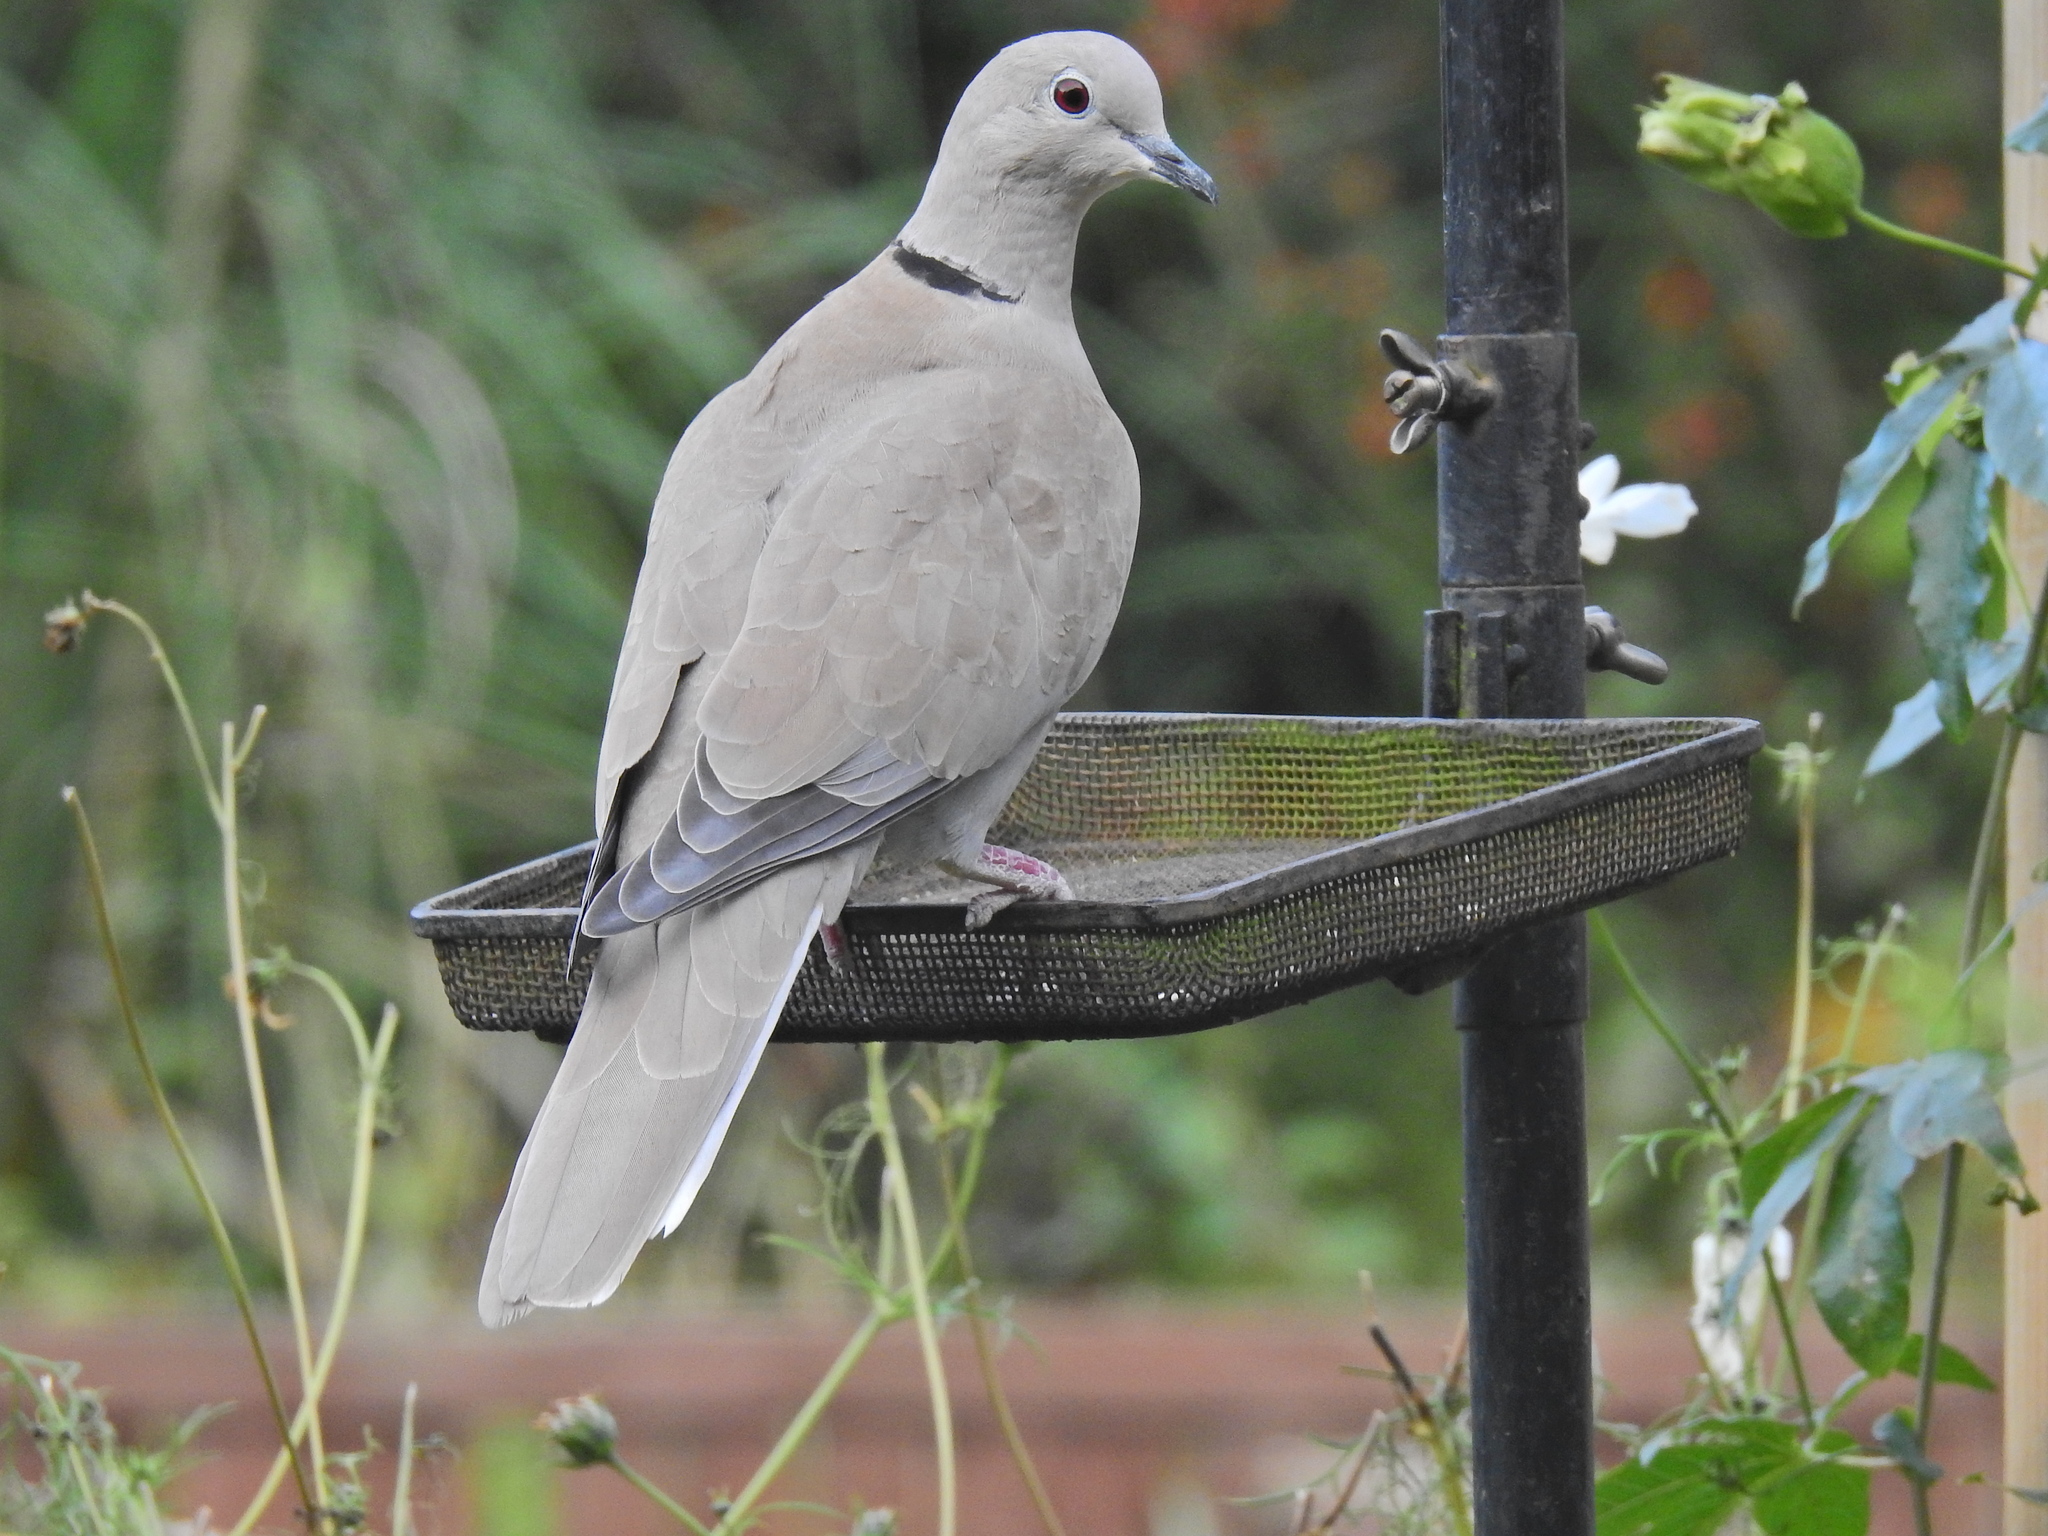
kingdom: Animalia
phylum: Chordata
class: Aves
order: Columbiformes
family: Columbidae
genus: Streptopelia
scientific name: Streptopelia decaocto
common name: Eurasian collared dove
